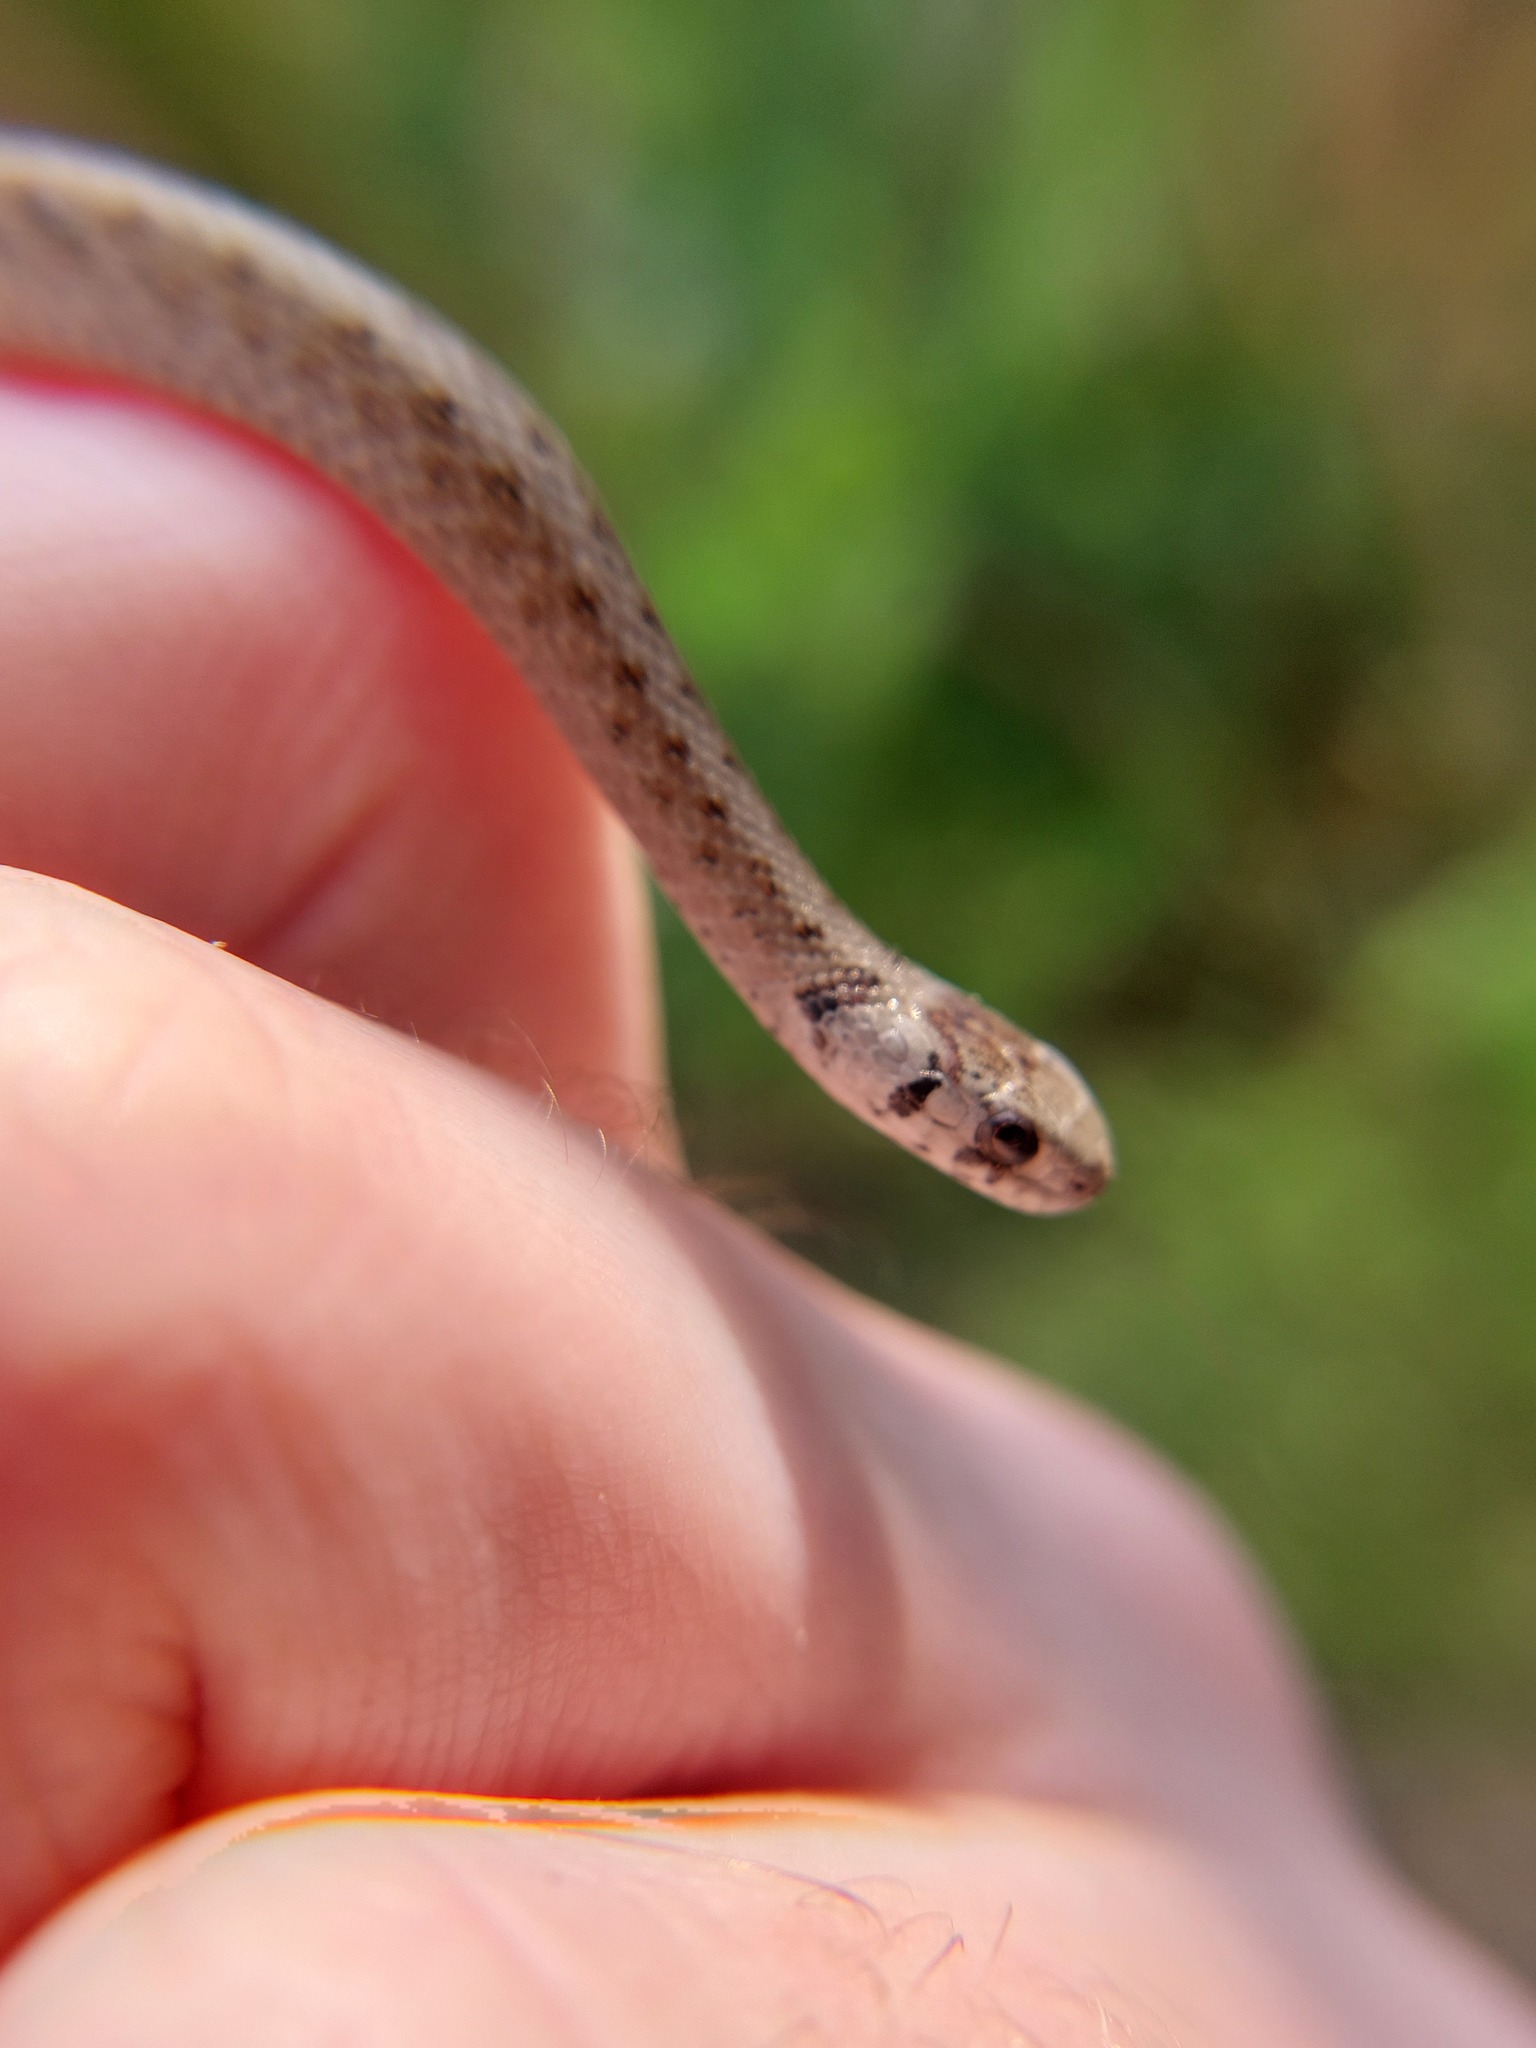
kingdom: Animalia
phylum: Chordata
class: Squamata
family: Colubridae
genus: Storeria
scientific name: Storeria dekayi
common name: (dekay’s) brown snake
